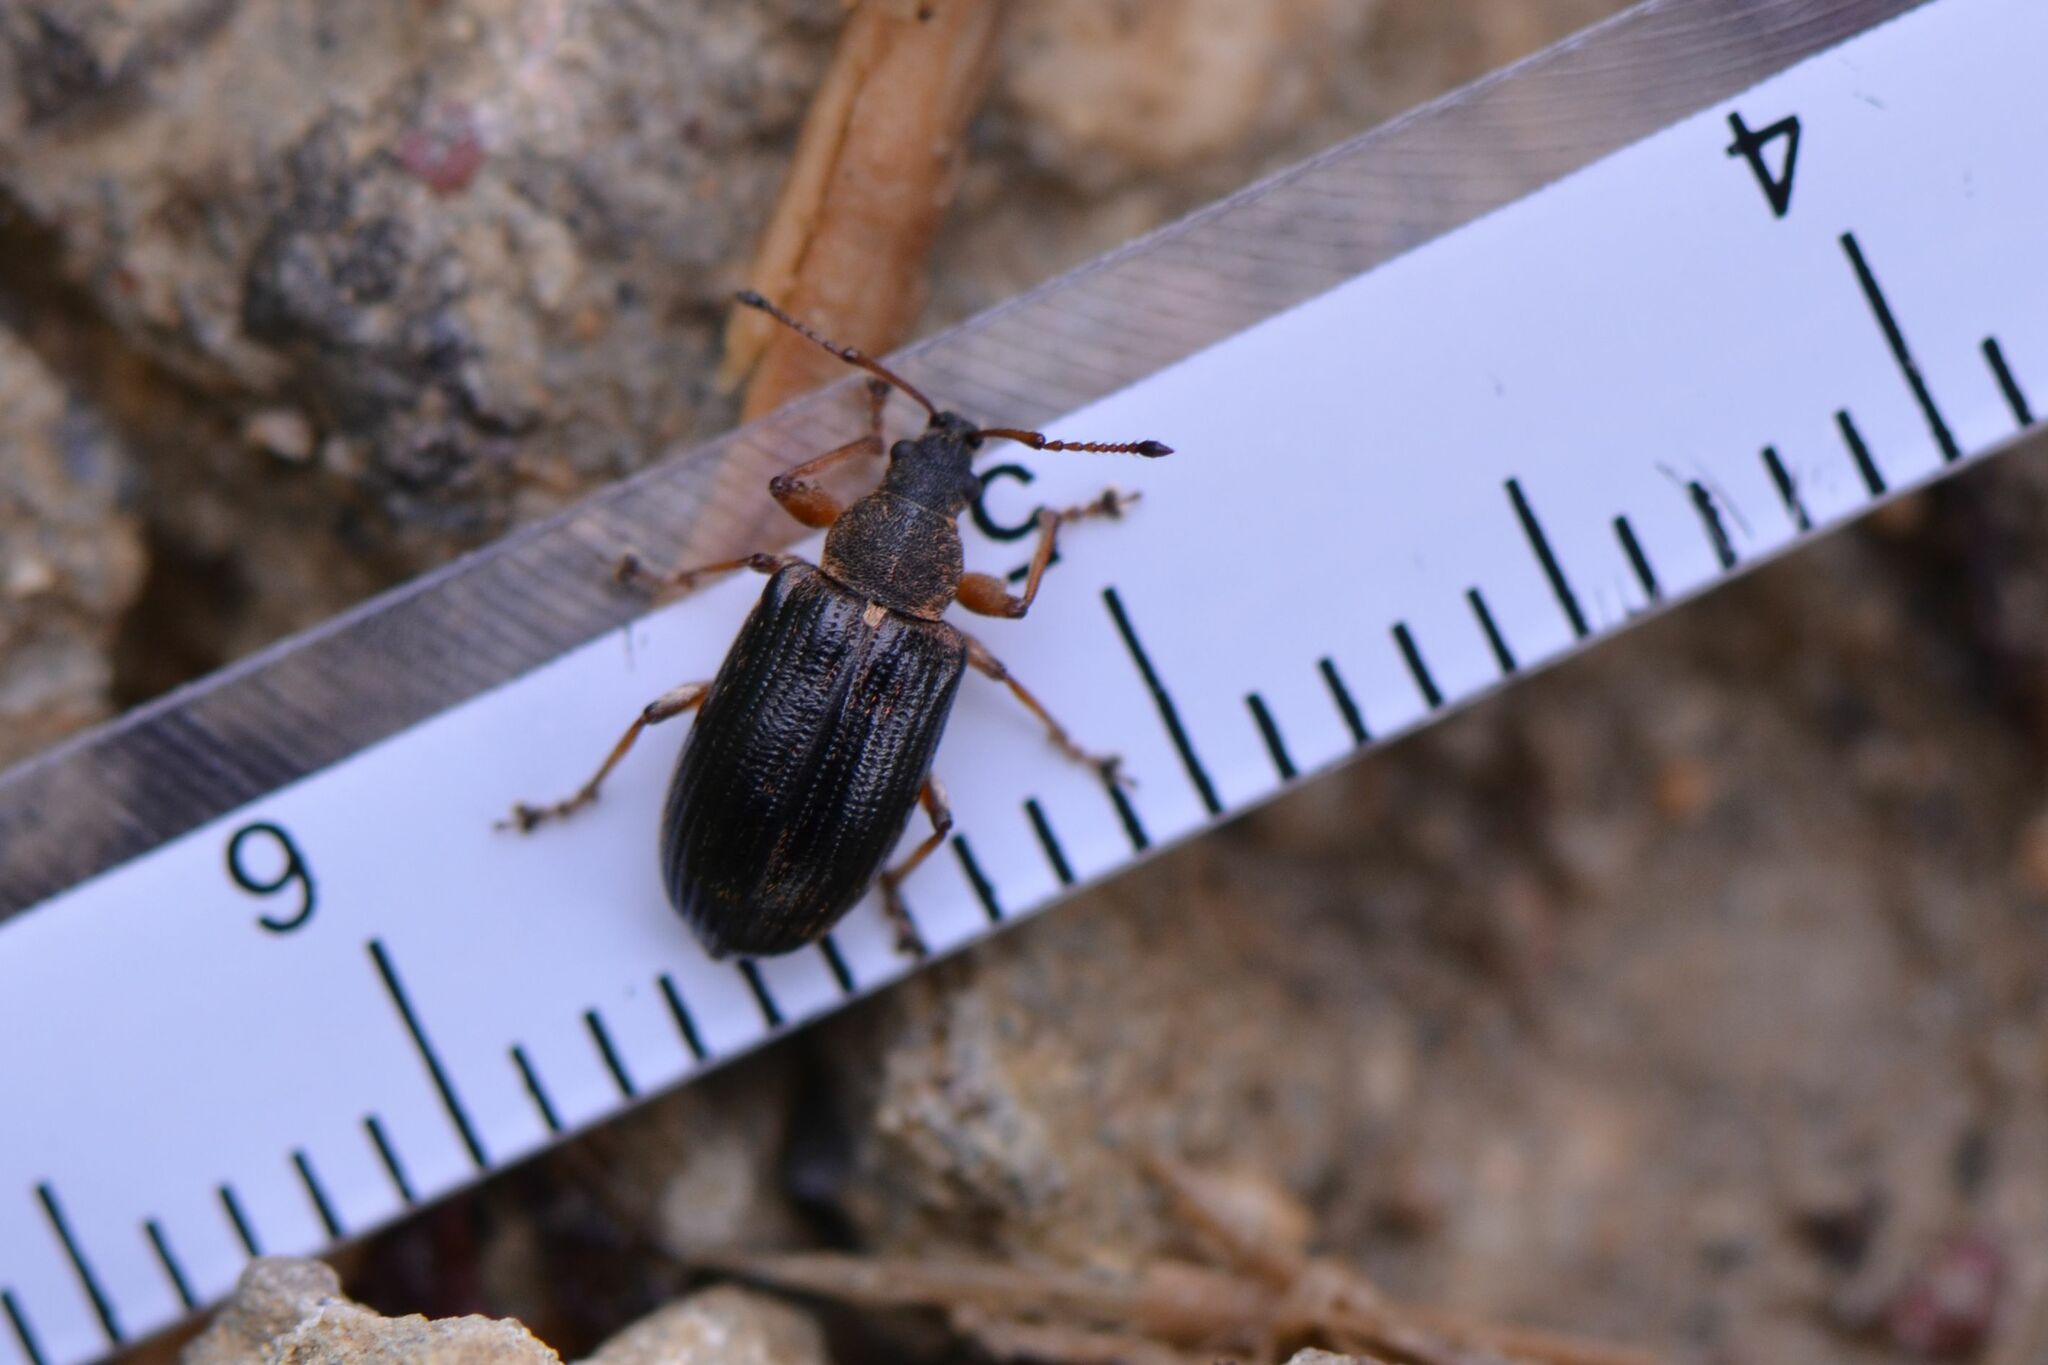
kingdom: Animalia
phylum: Arthropoda
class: Insecta
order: Coleoptera
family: Curculionidae
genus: Phyllobius
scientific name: Phyllobius pyri
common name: Common leaf weevil
